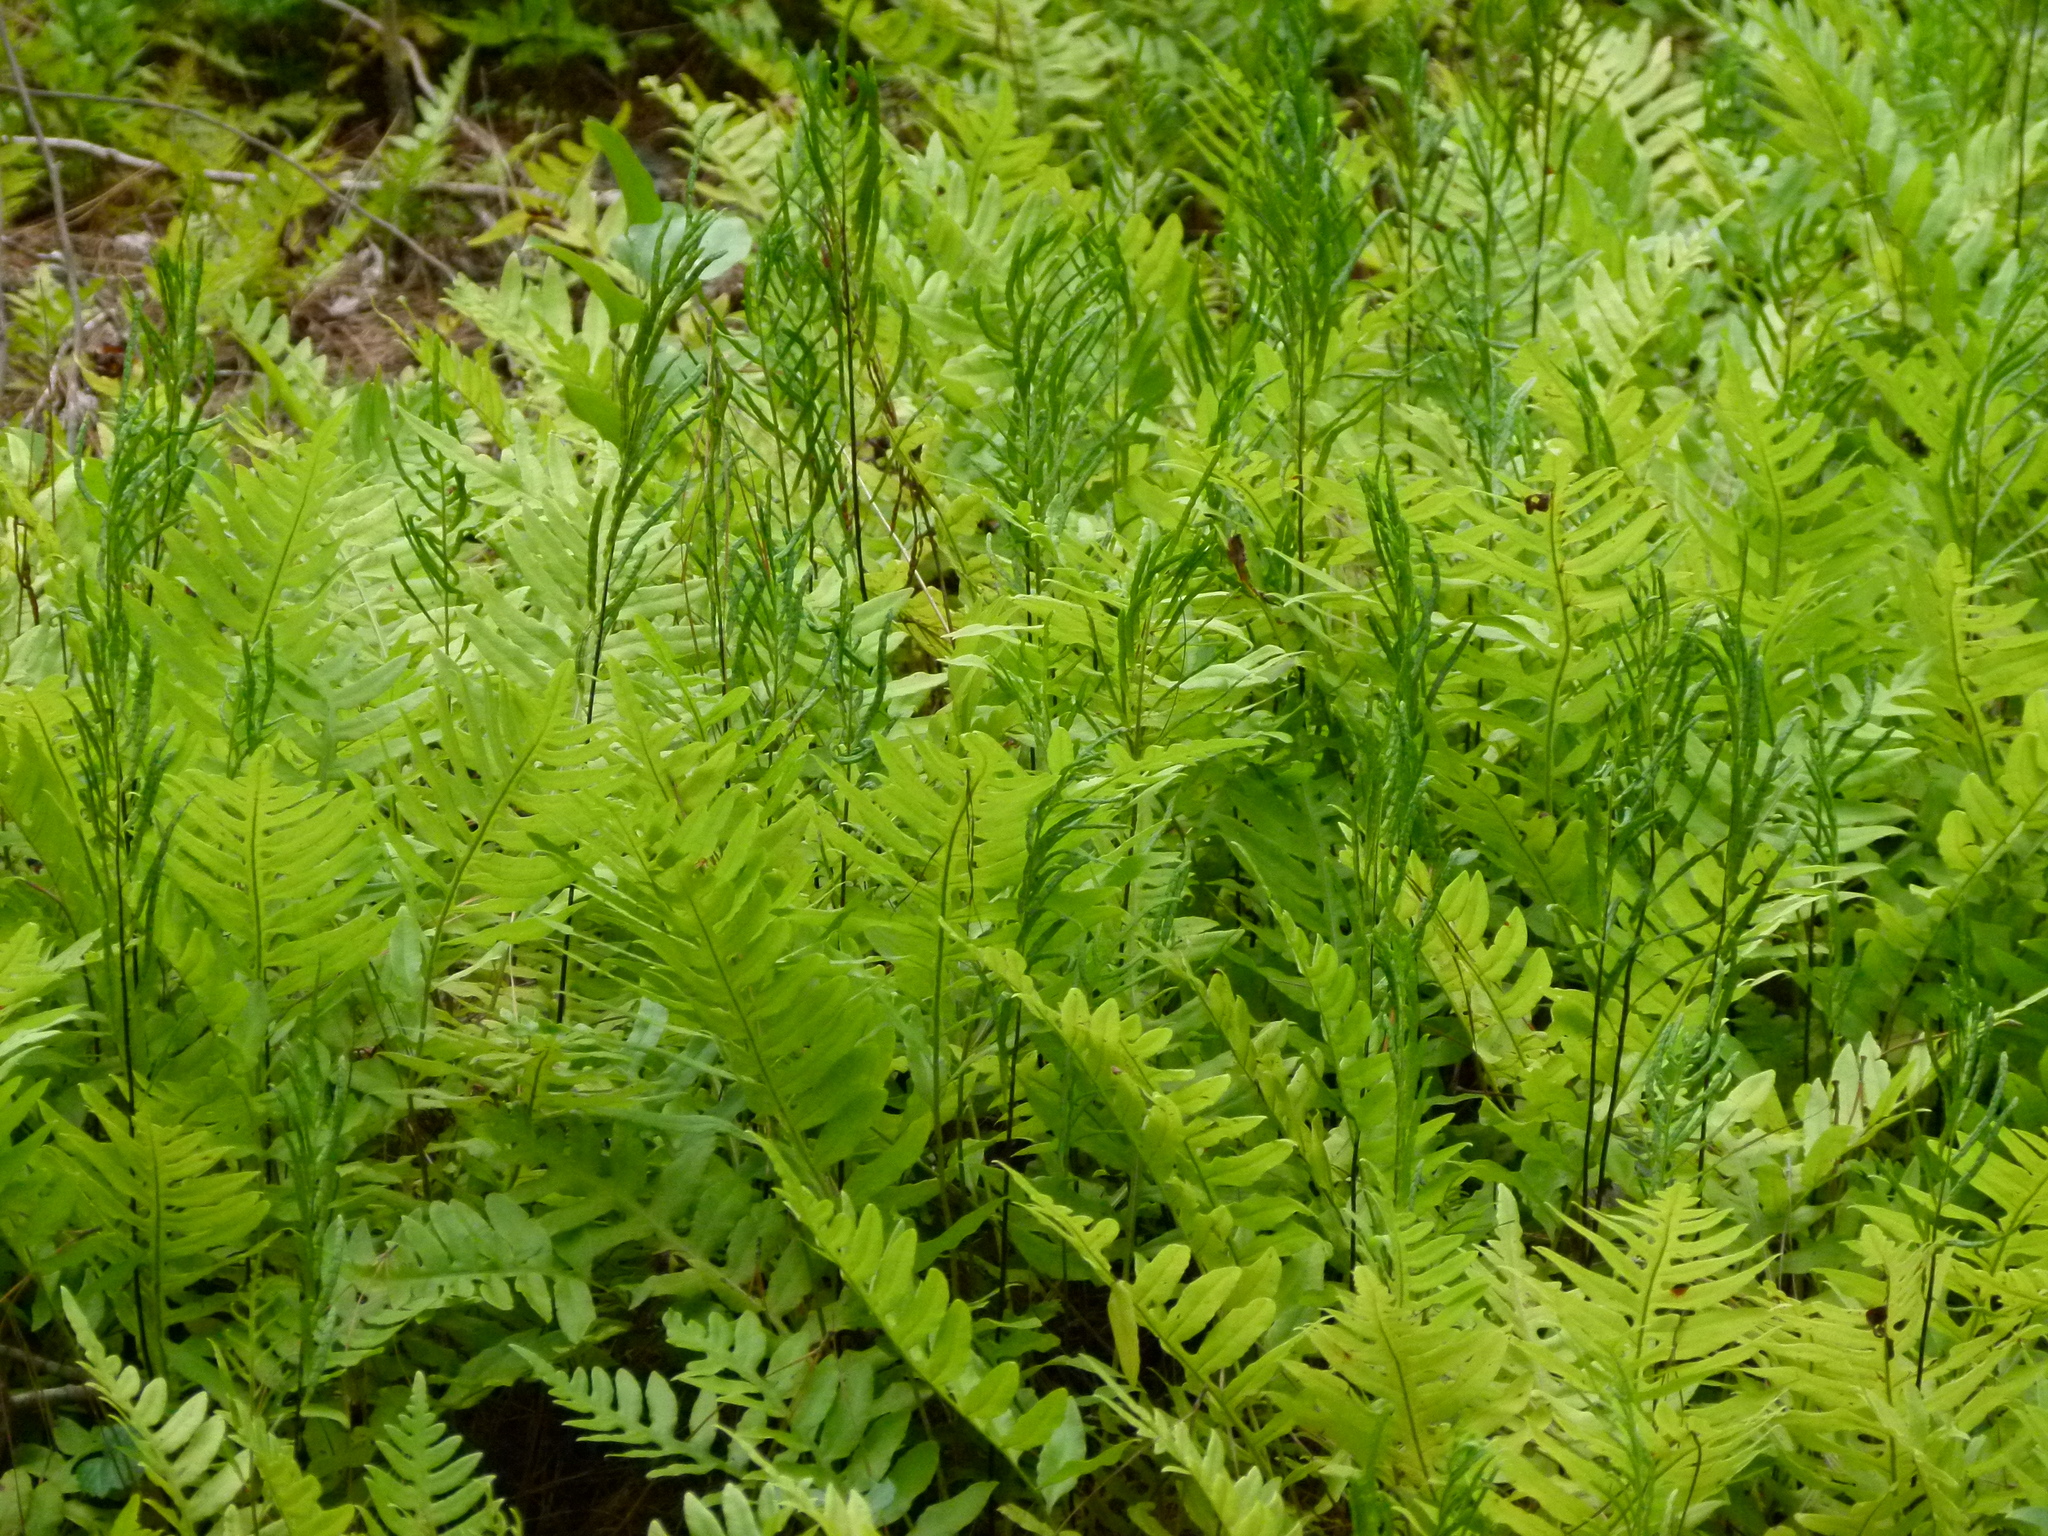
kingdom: Plantae
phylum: Tracheophyta
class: Polypodiopsida
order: Polypodiales
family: Blechnaceae
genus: Lorinseria
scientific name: Lorinseria areolata
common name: Dwarf chain fern
